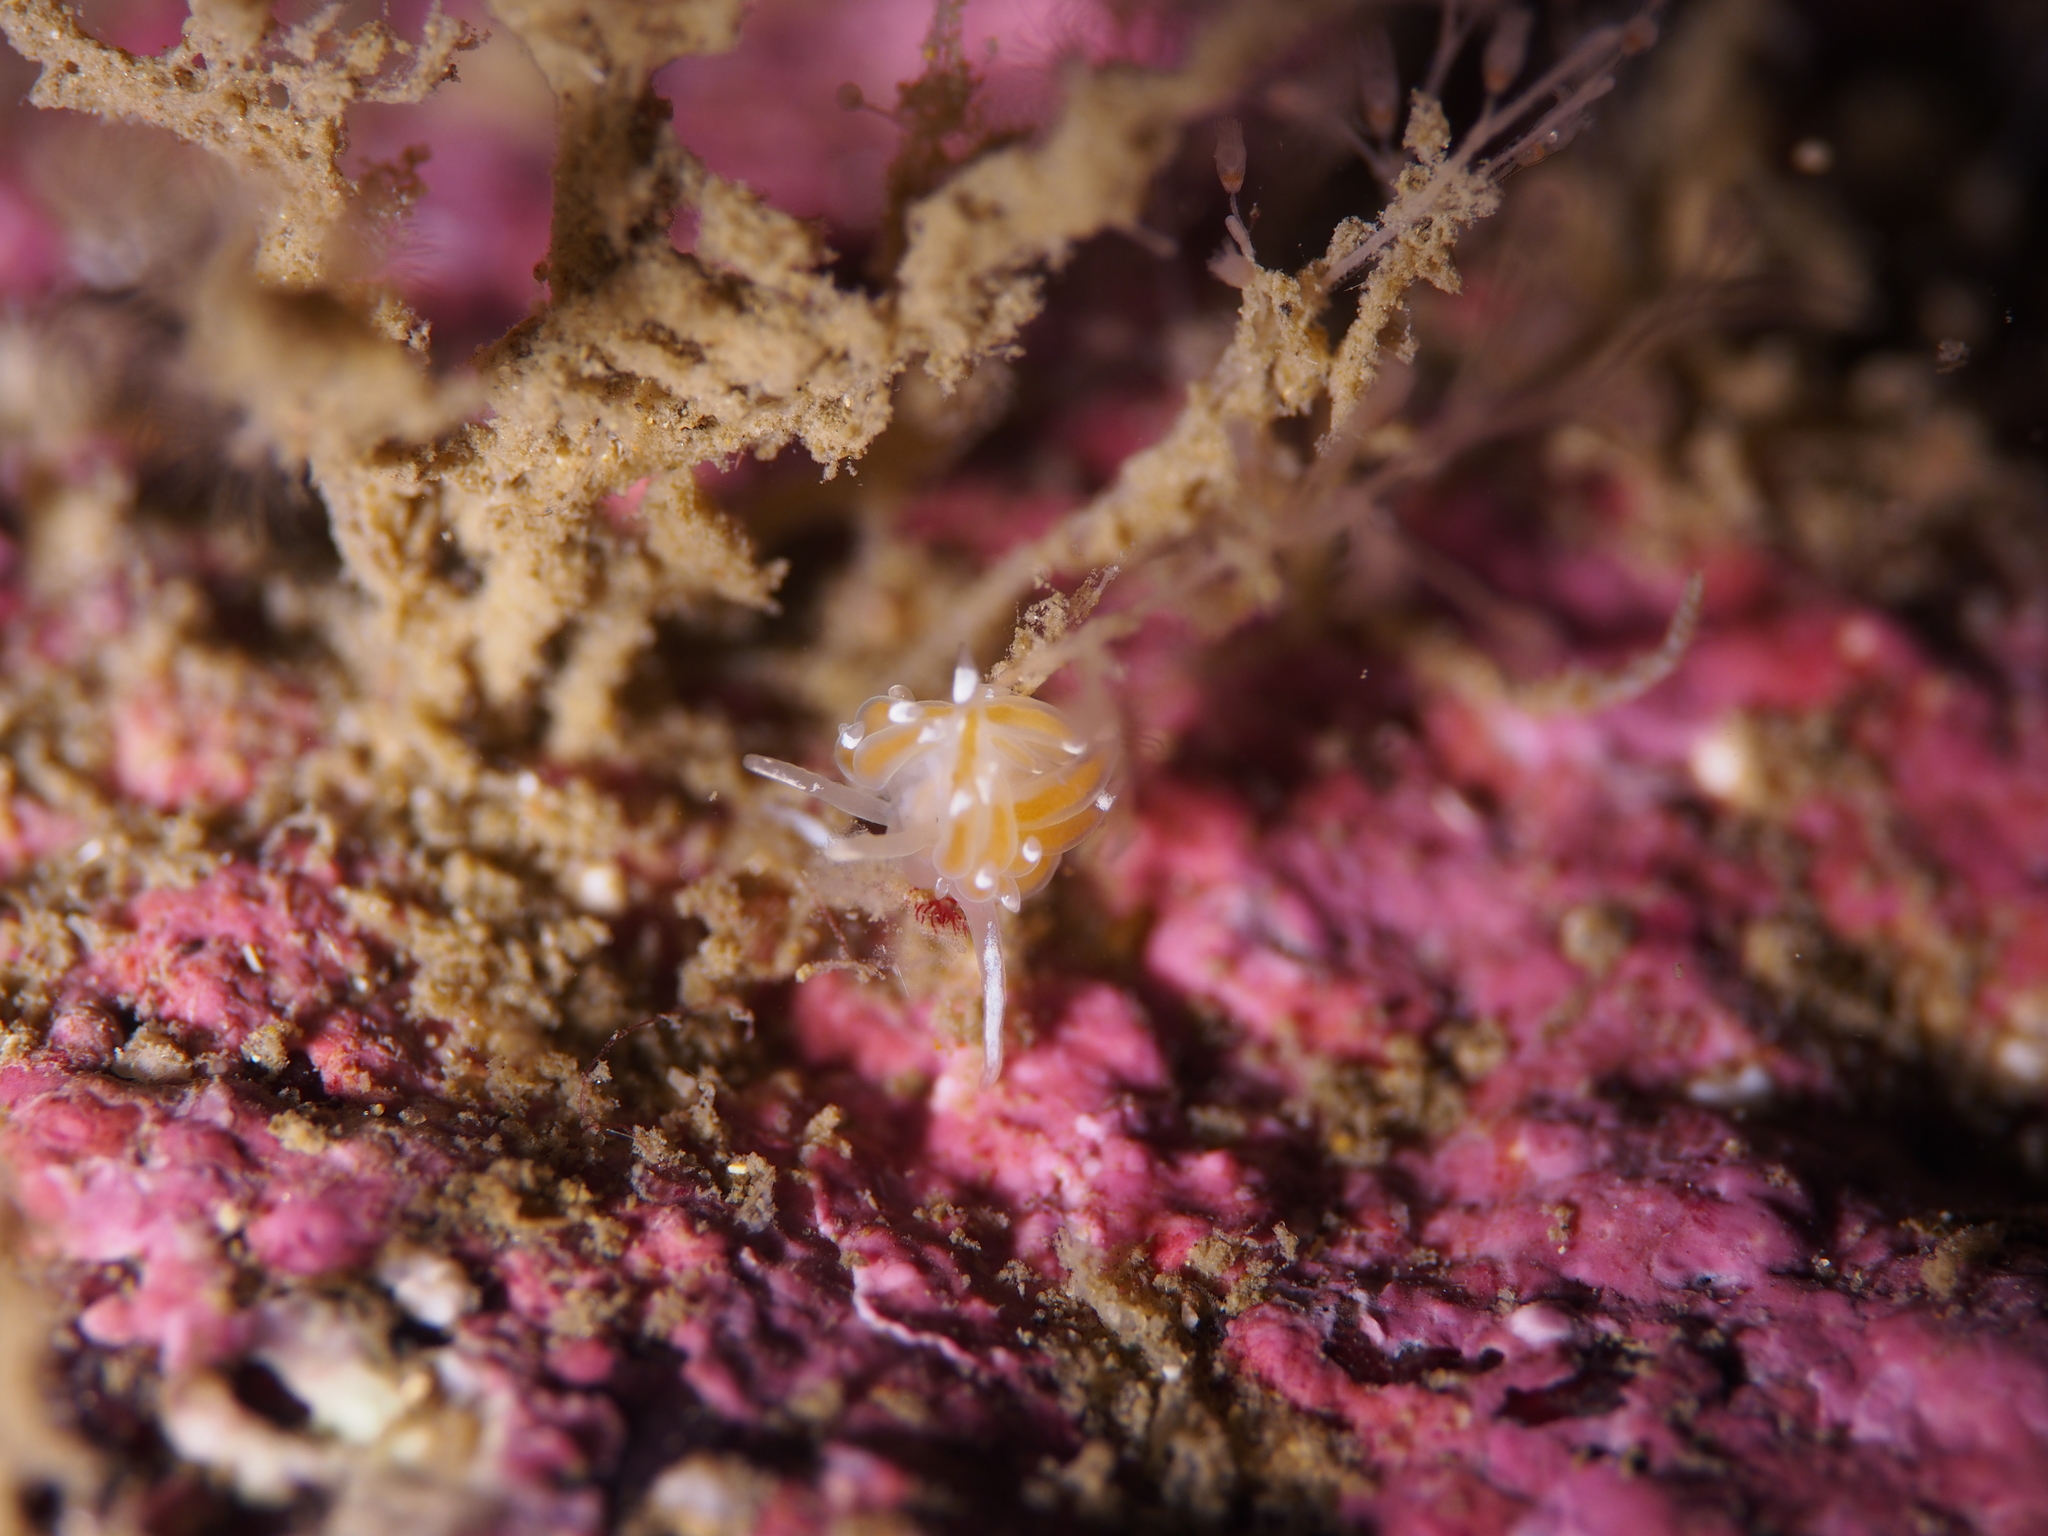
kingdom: Animalia
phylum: Mollusca
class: Gastropoda
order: Nudibranchia
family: Coryphellidae
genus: Coryphella
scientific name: Coryphella gracilis
